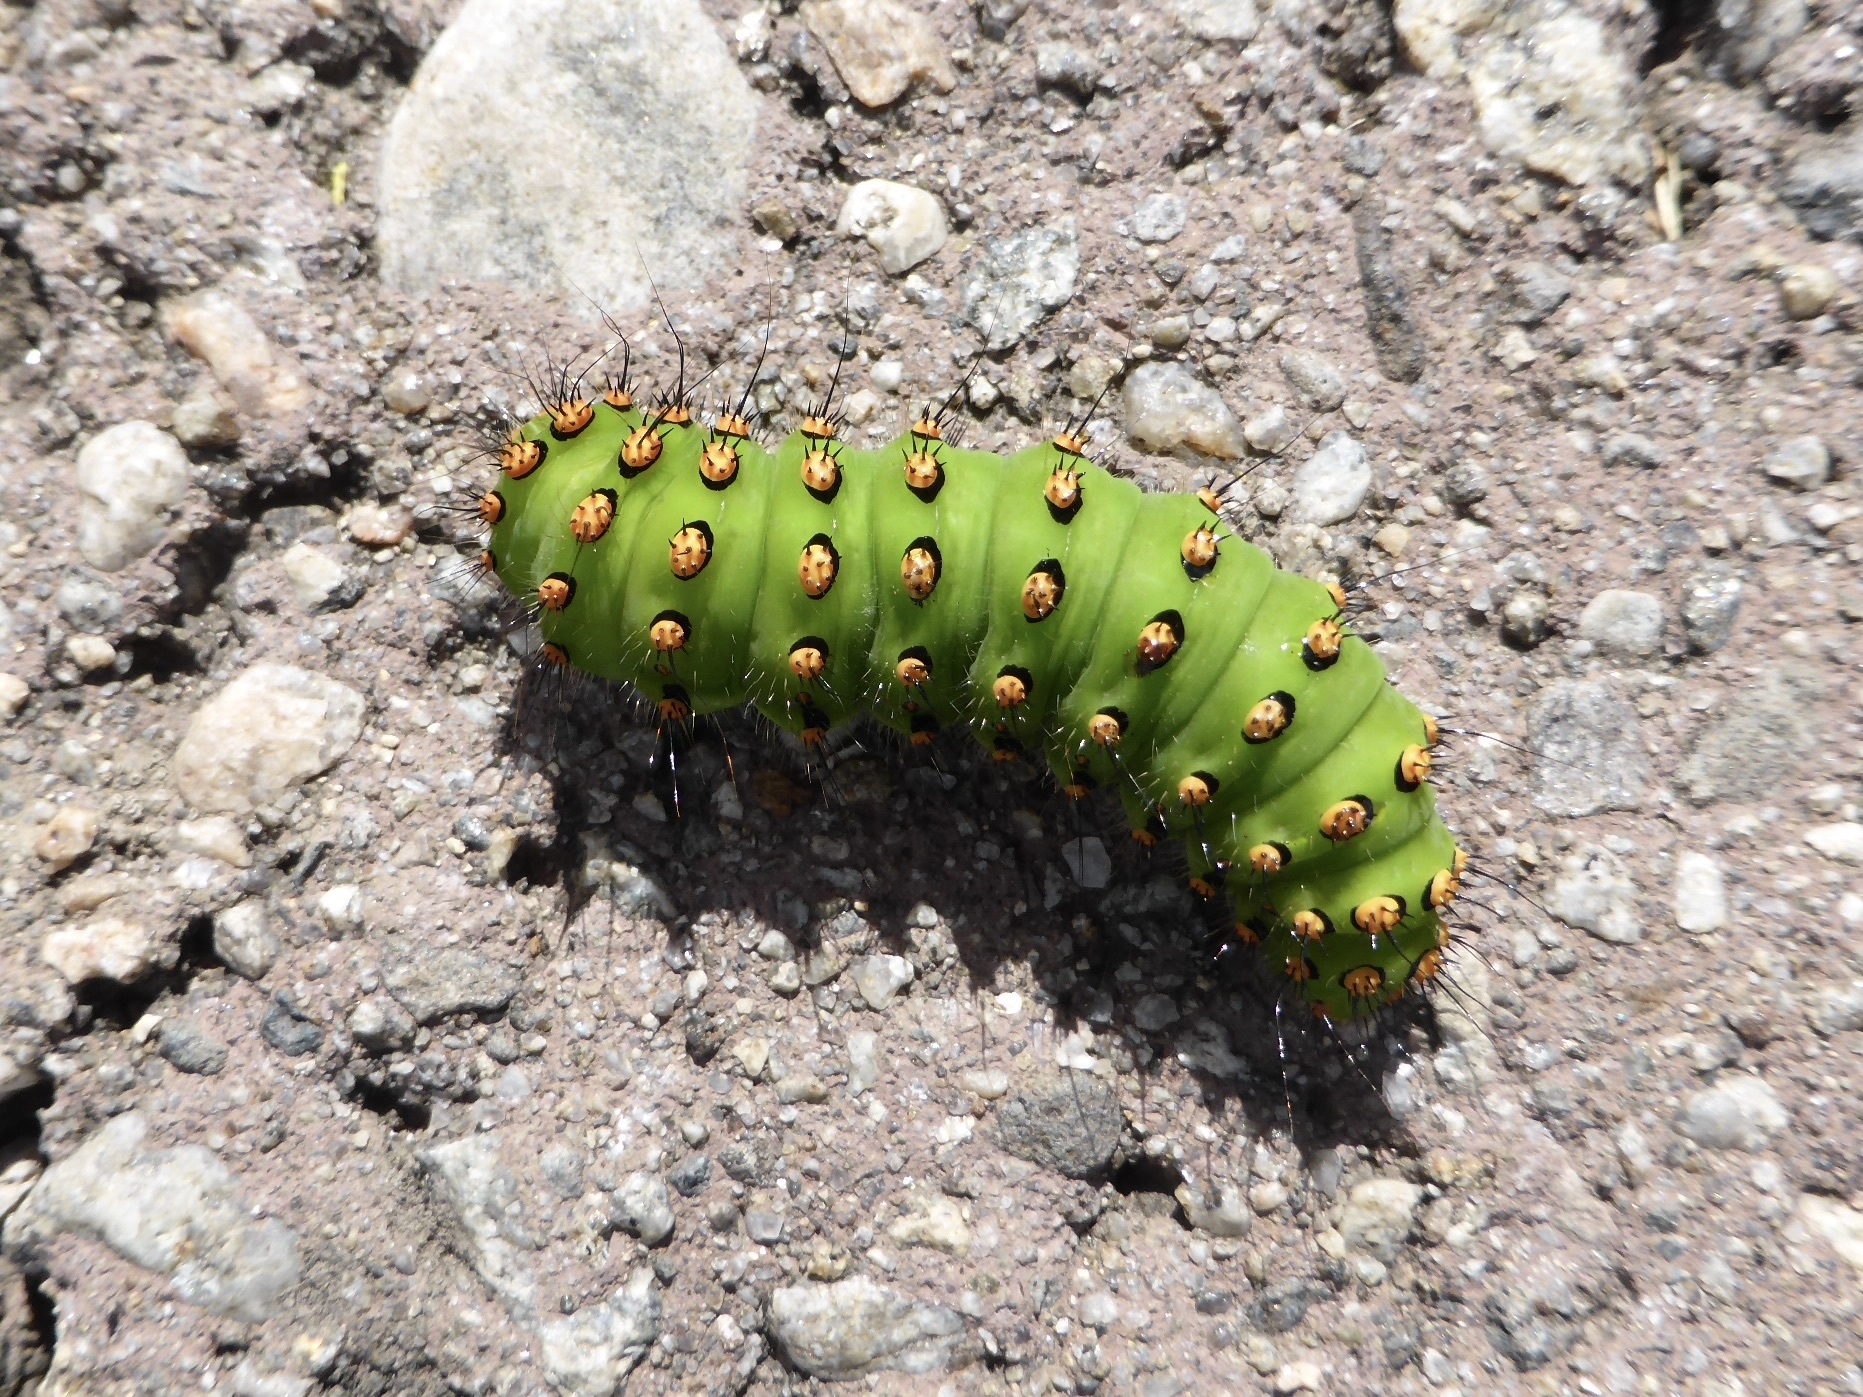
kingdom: Animalia
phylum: Arthropoda
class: Insecta
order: Lepidoptera
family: Saturniidae
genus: Saturnia
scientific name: Saturnia pavonia
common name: Emperor moth
